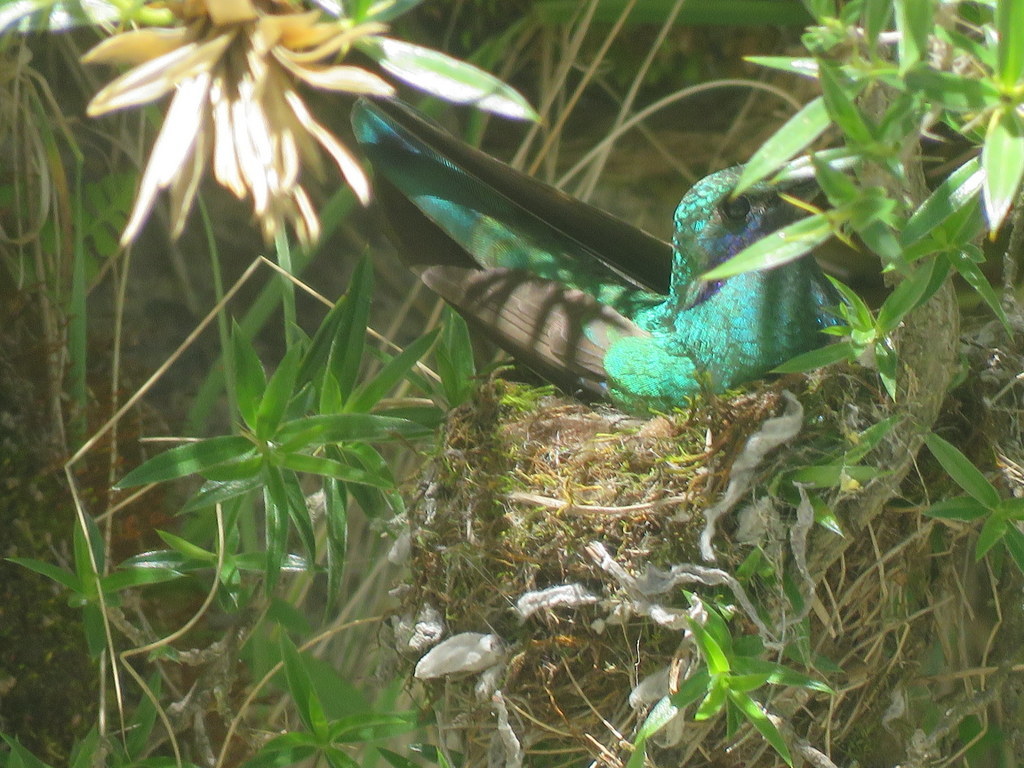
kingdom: Animalia
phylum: Chordata
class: Aves
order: Apodiformes
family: Trochilidae
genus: Colibri
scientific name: Colibri coruscans
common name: Sparkling violetear
